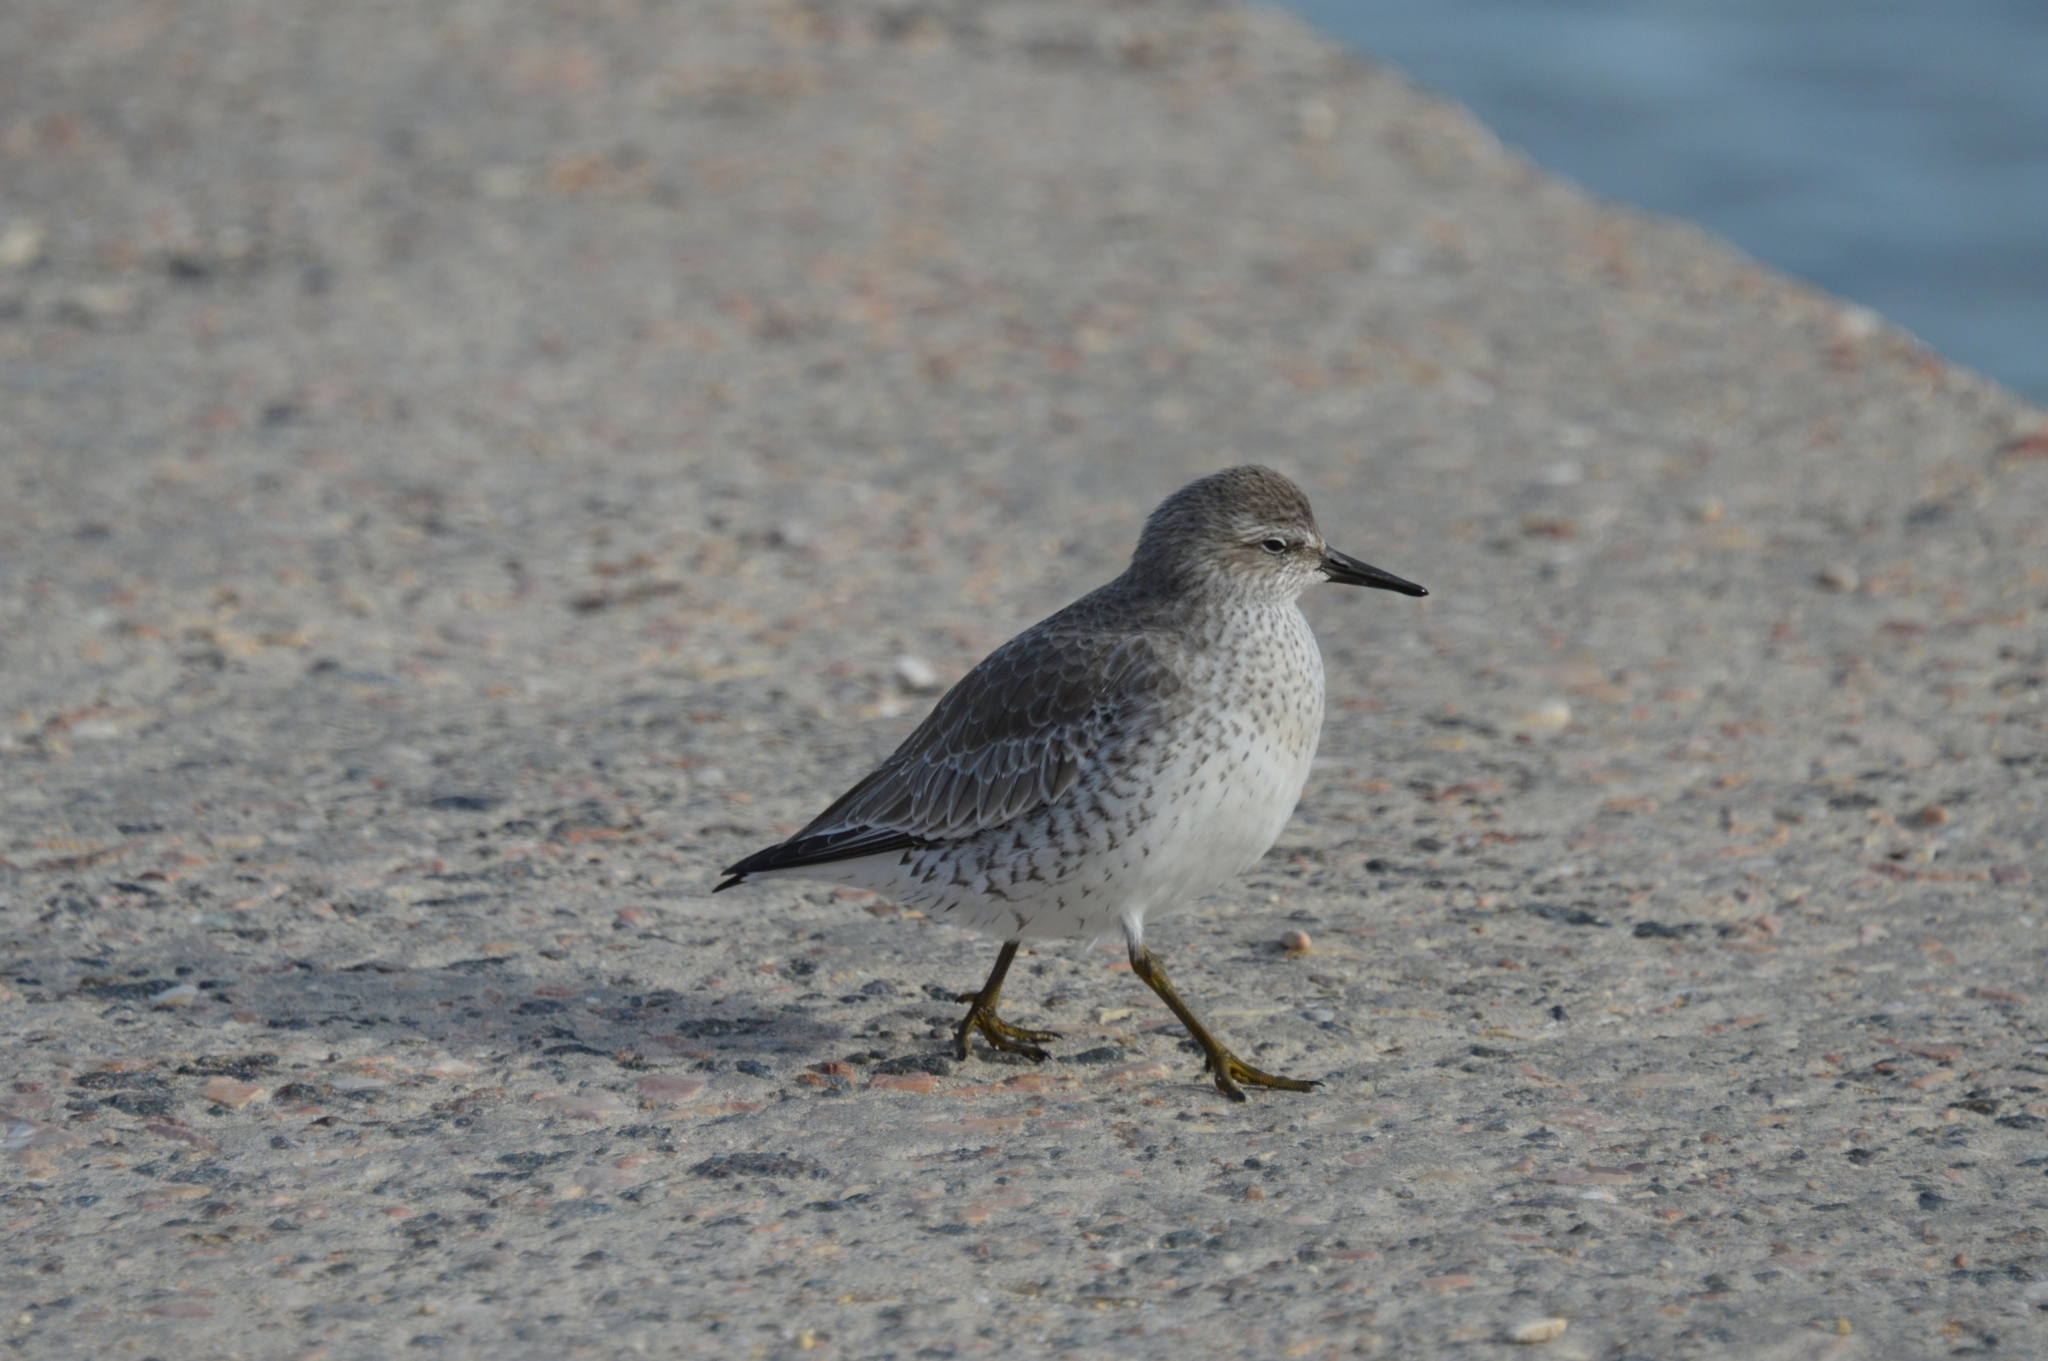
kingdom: Animalia
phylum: Chordata
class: Aves
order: Charadriiformes
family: Scolopacidae
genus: Calidris
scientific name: Calidris canutus
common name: Red knot
